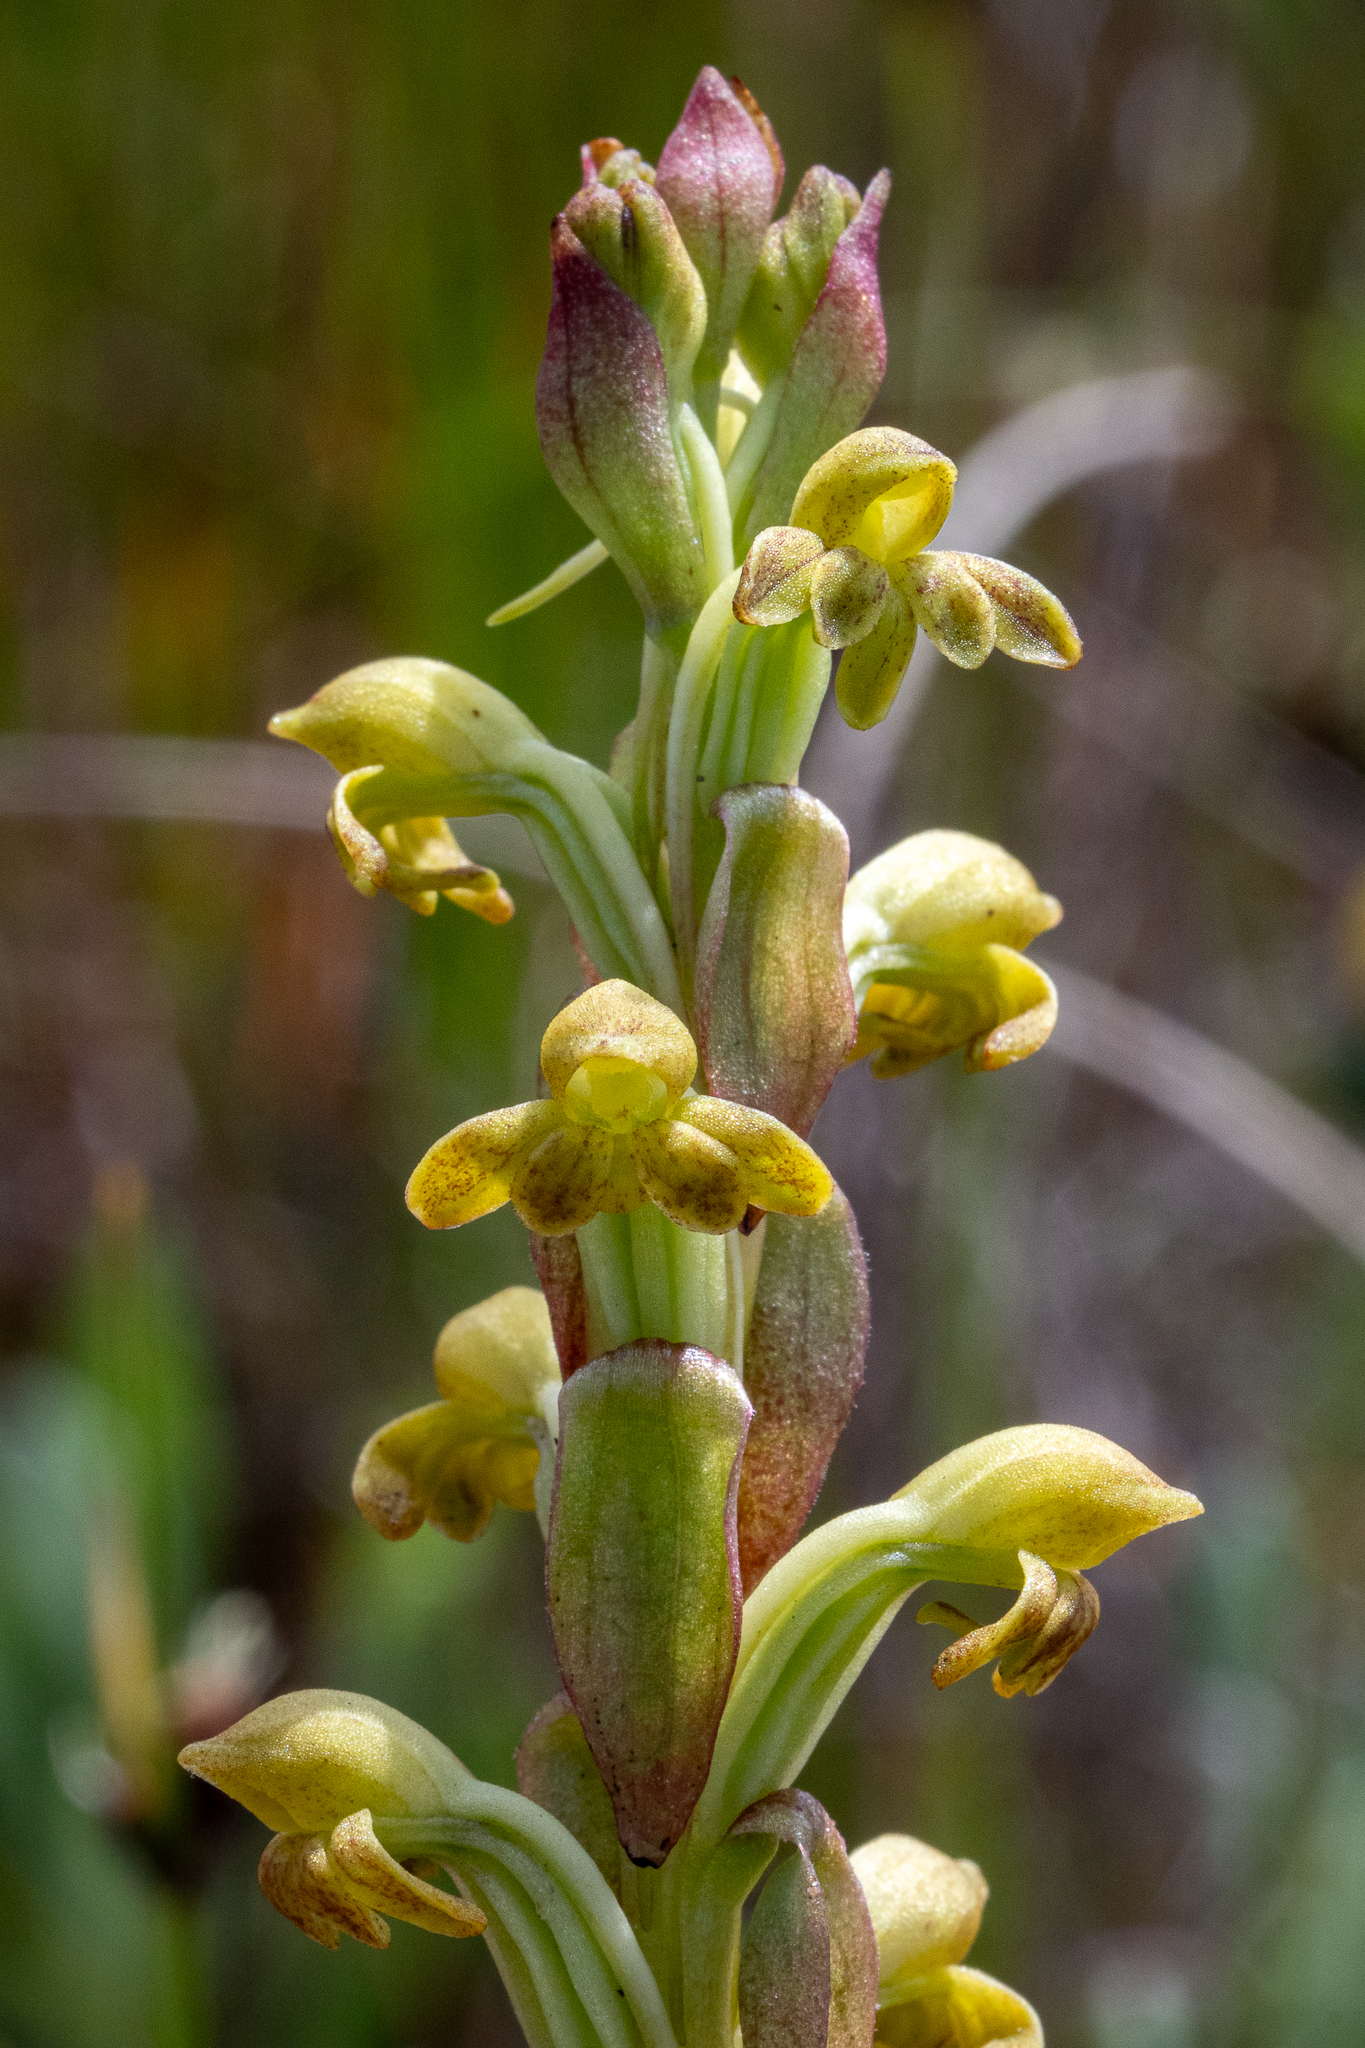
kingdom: Plantae
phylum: Tracheophyta
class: Liliopsida
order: Asparagales
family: Orchidaceae
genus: Satyrium
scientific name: Satyrium bicorne
